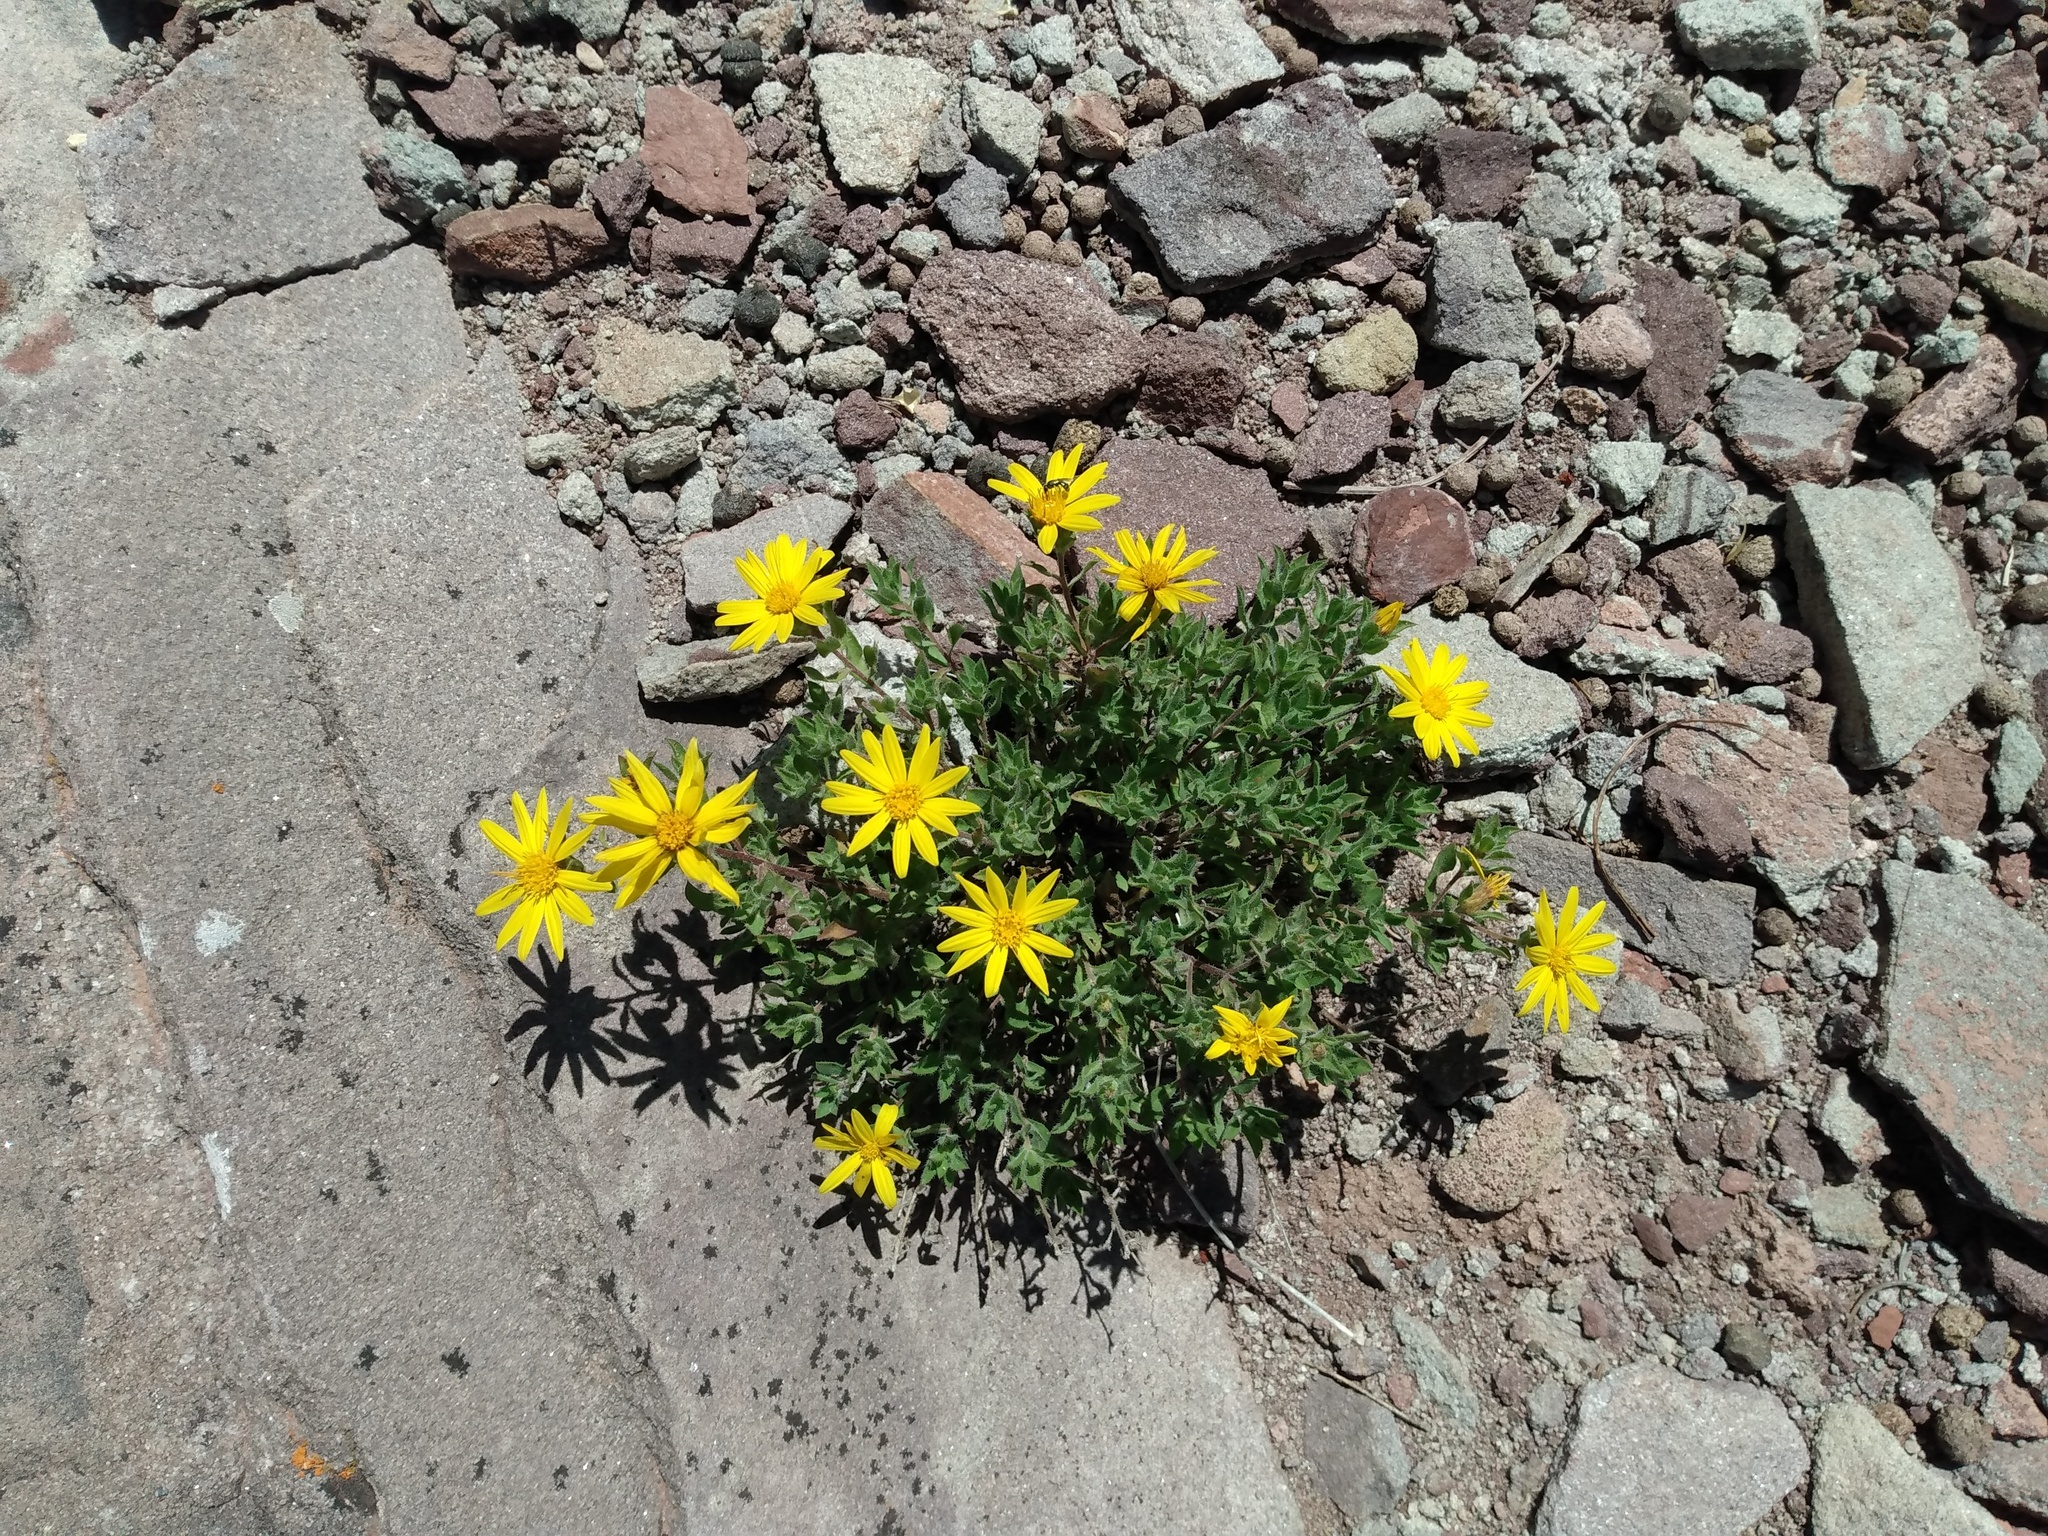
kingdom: Plantae
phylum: Tracheophyta
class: Magnoliopsida
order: Asterales
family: Asteraceae
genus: Heterotheca
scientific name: Heterotheca pumila
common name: Alpine golden-aster
